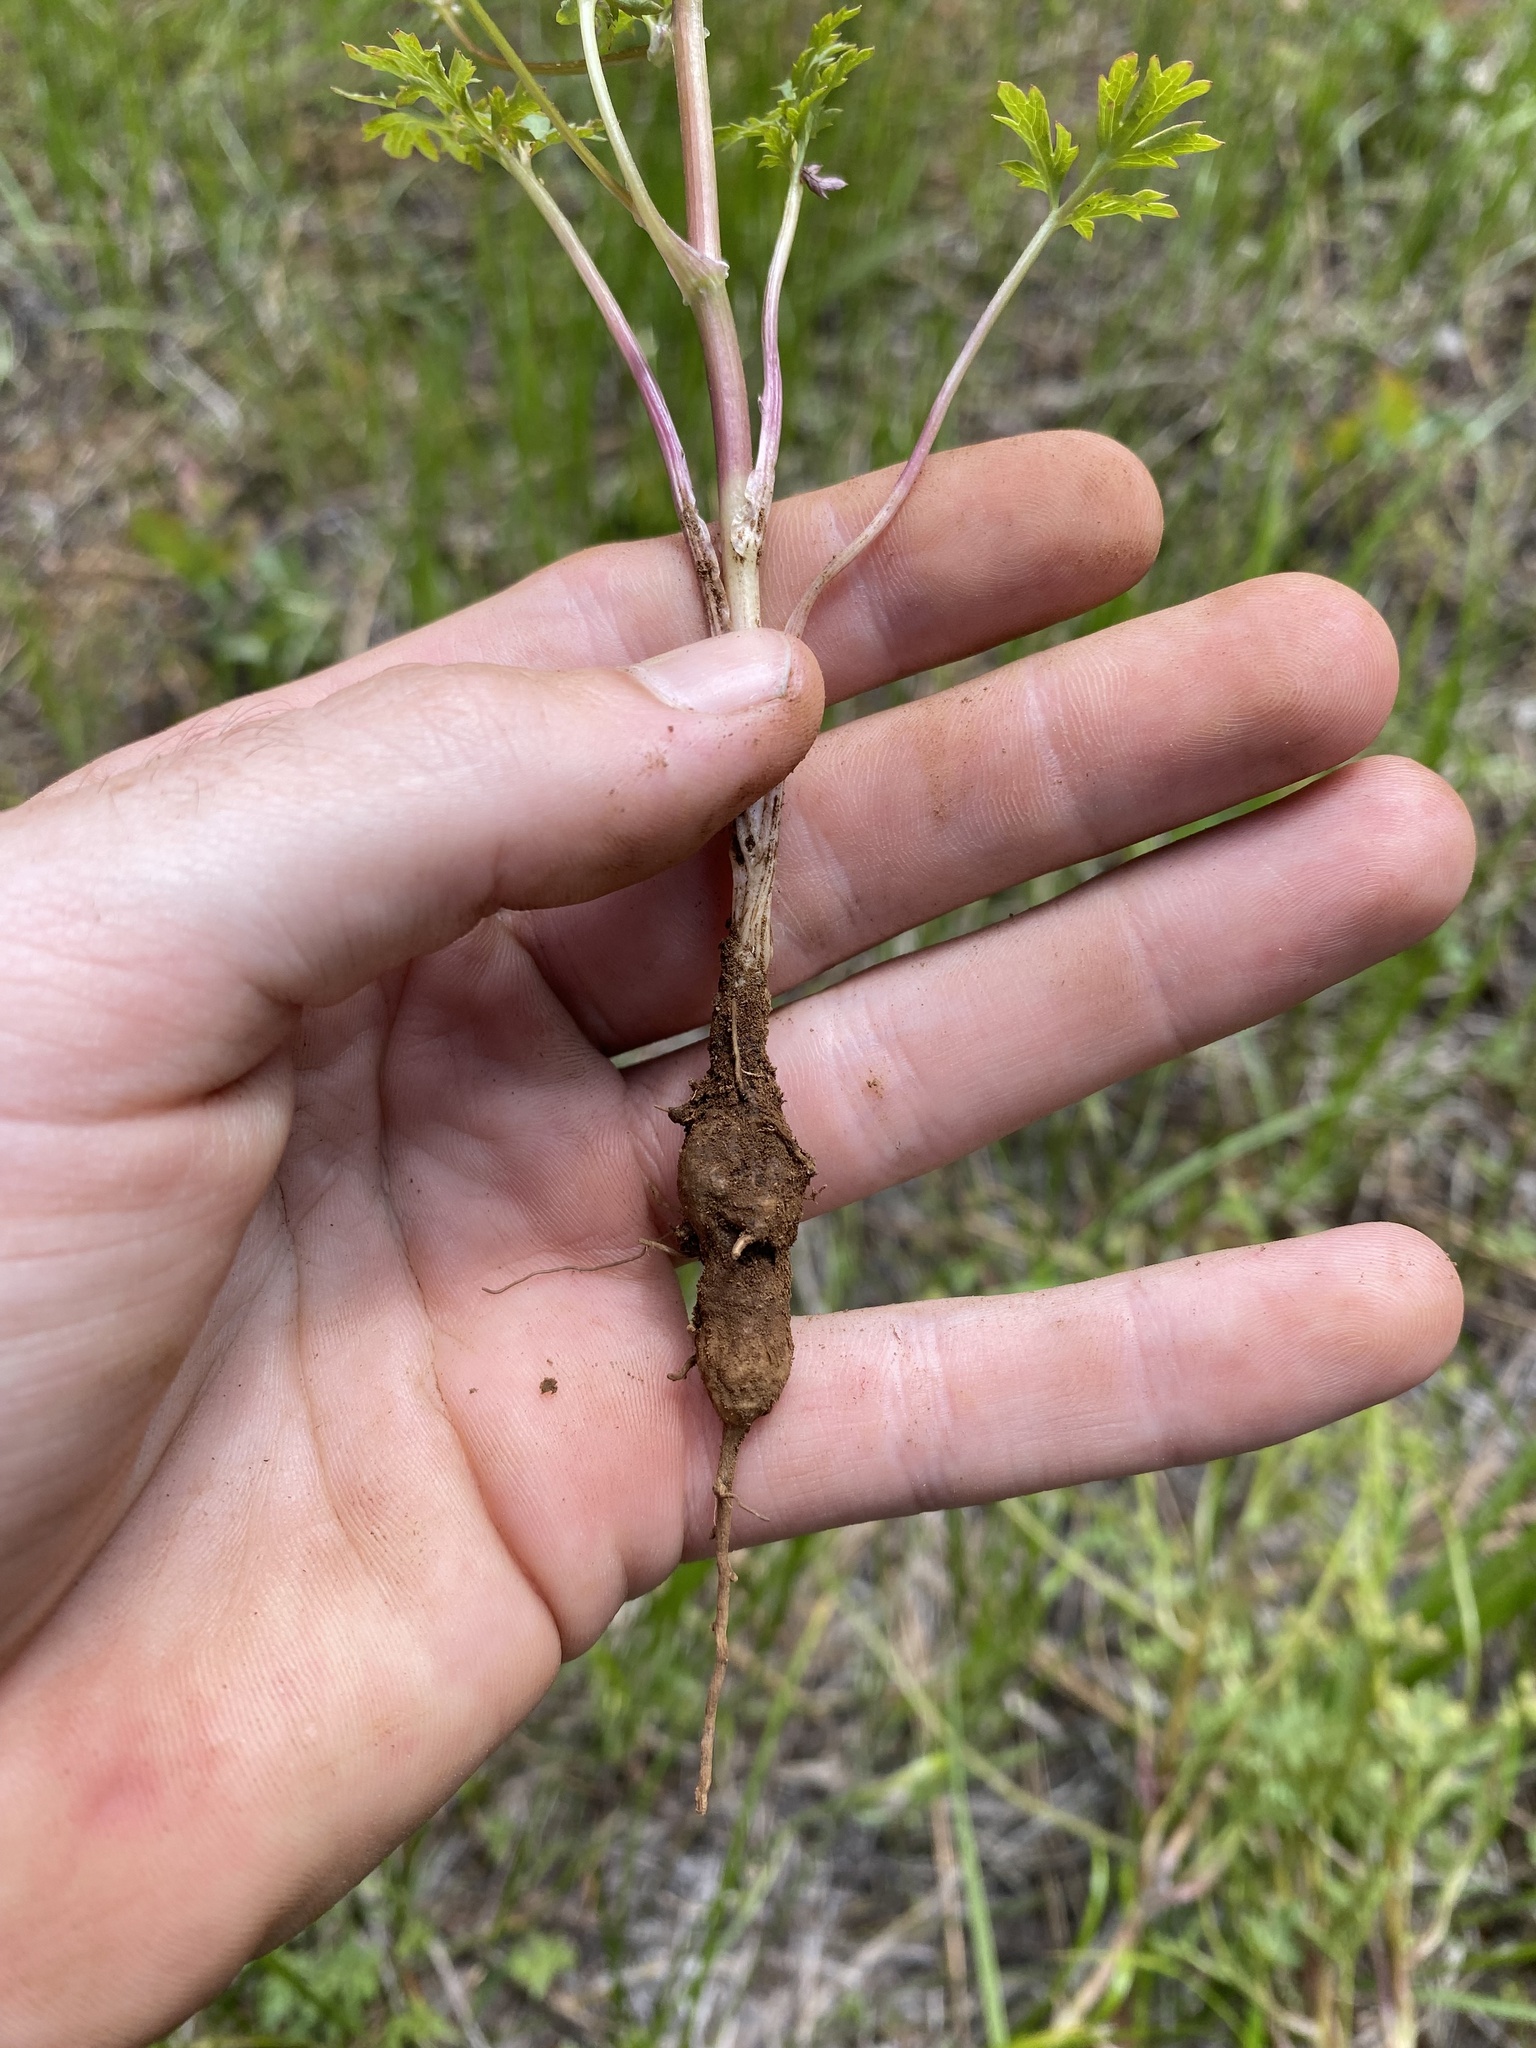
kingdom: Plantae
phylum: Tracheophyta
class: Magnoliopsida
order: Apiales
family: Apiaceae
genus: Sanicula
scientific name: Sanicula graveolens
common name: Sierra sanicle
